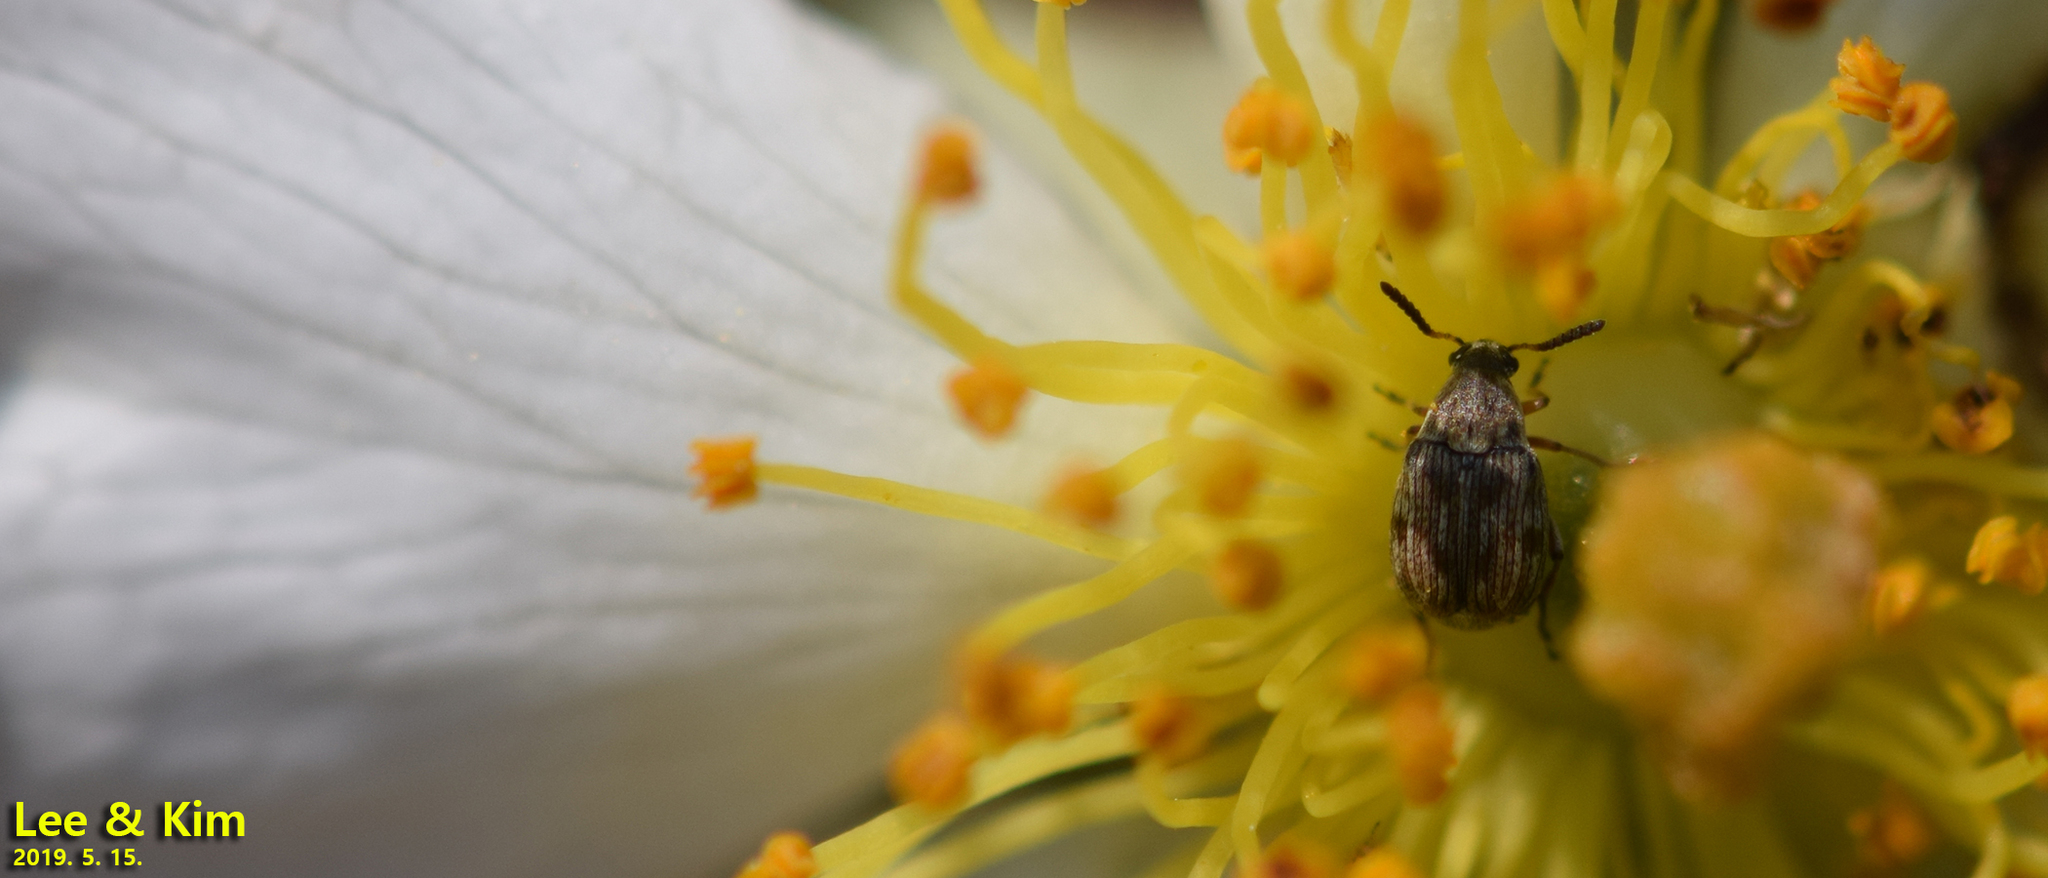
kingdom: Animalia
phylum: Arthropoda
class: Insecta
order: Coleoptera
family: Chrysomelidae
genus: Dactylispa
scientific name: Dactylispa pallidipennis
